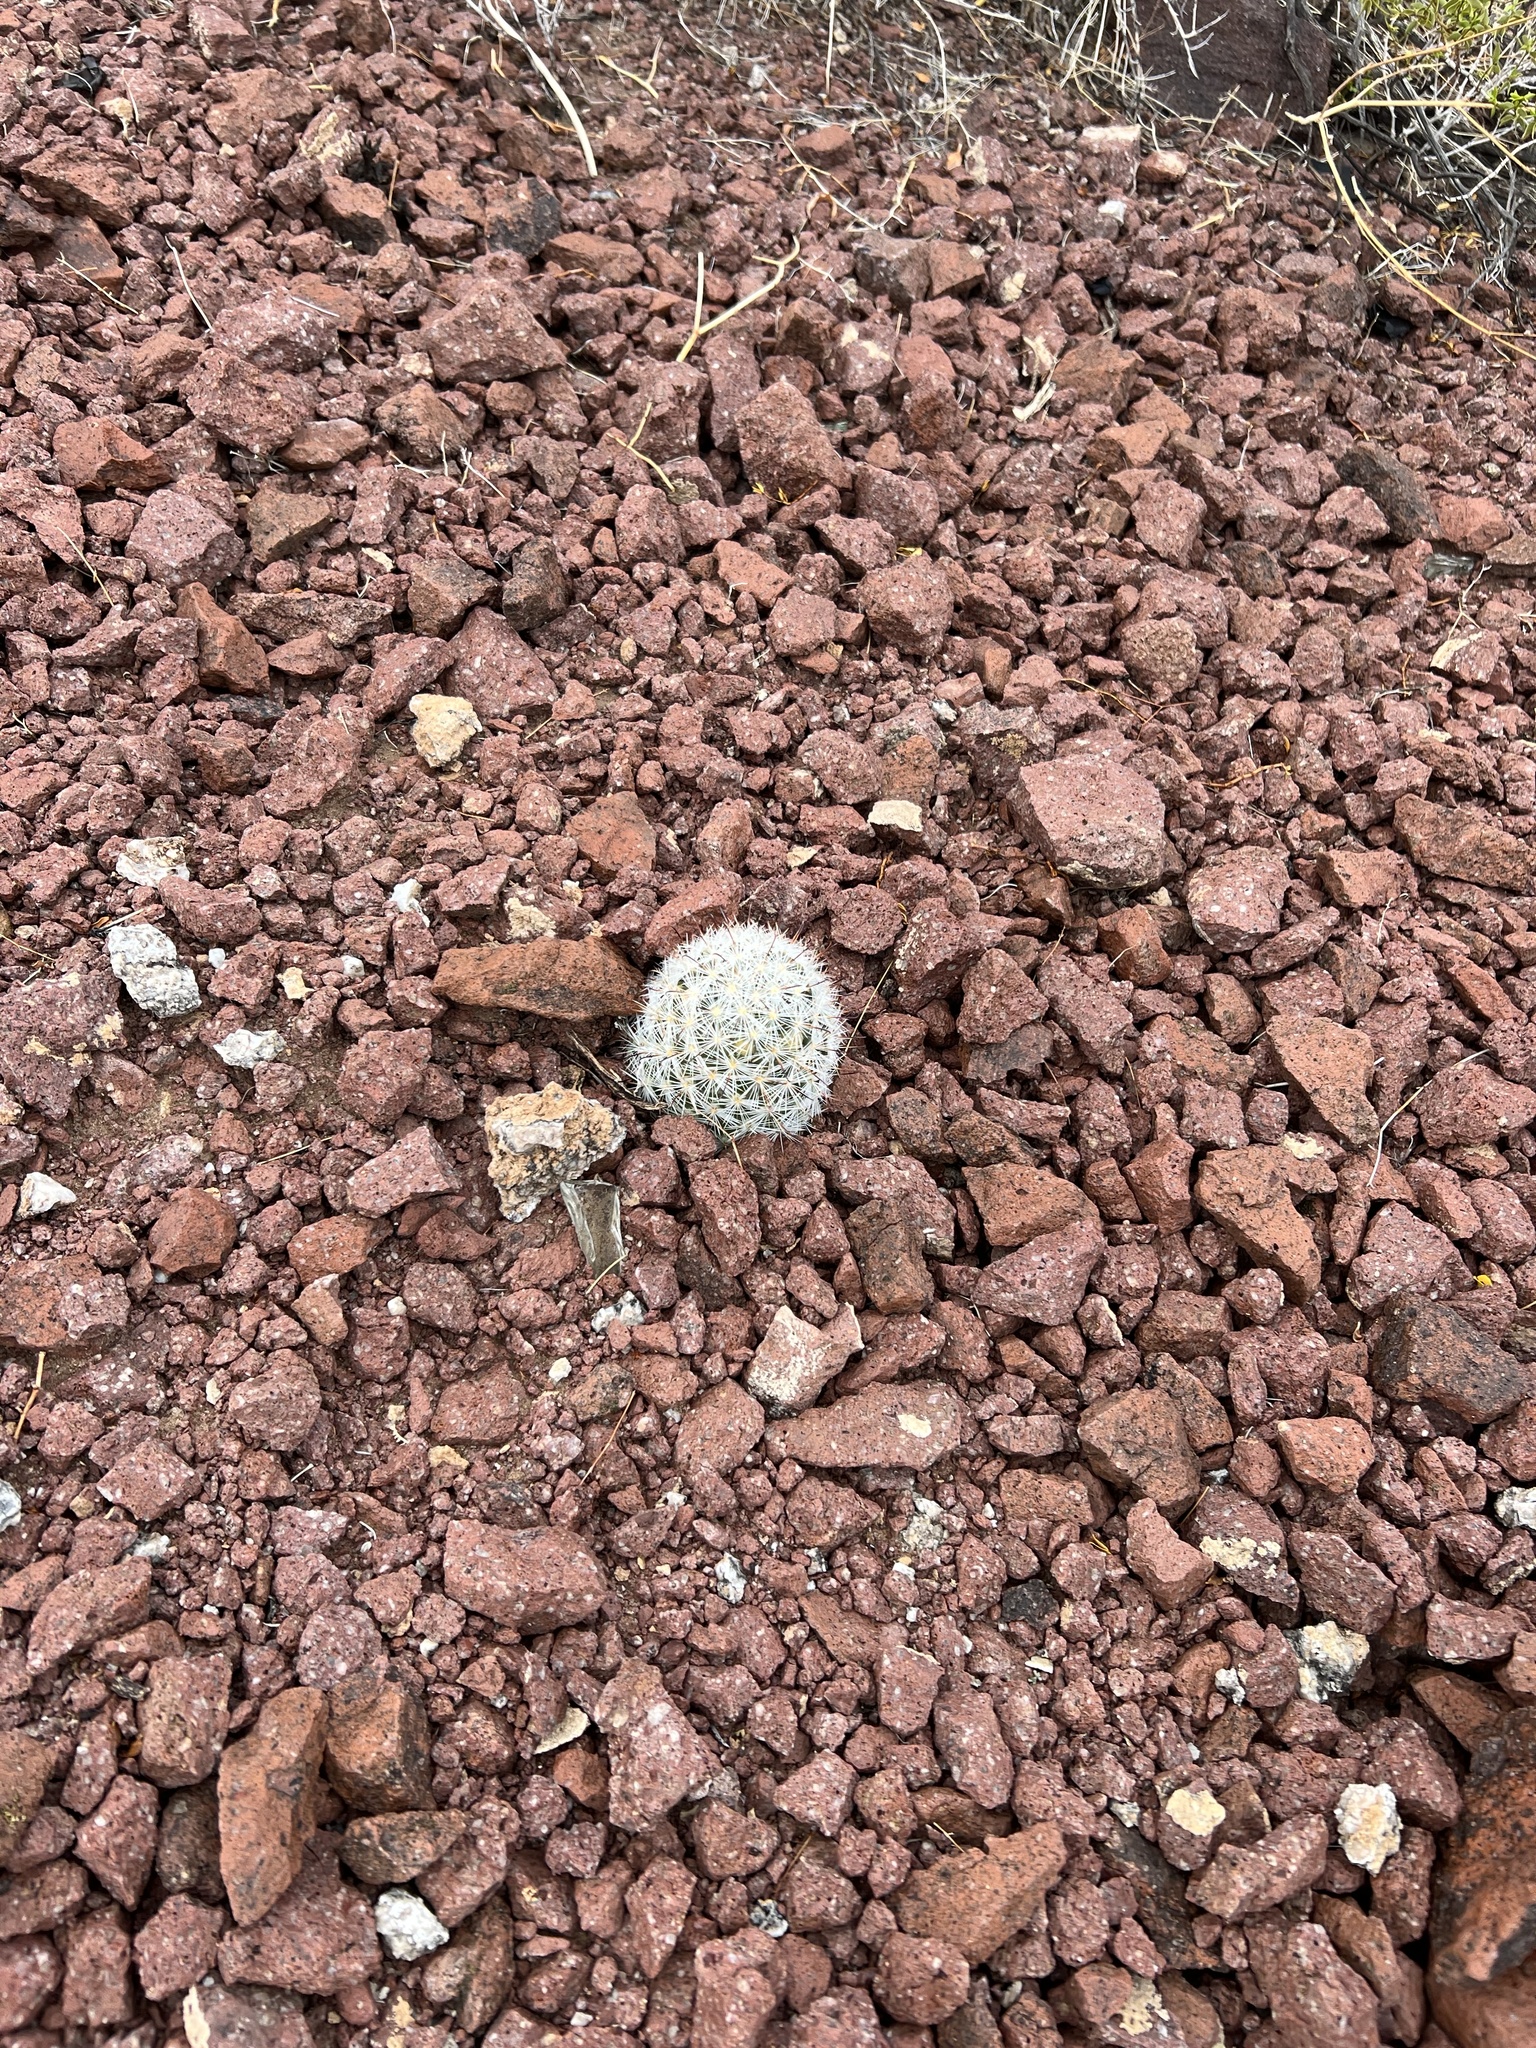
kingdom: Plantae
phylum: Tracheophyta
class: Magnoliopsida
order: Caryophyllales
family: Cactaceae
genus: Cochemiea
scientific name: Cochemiea tetrancistra
